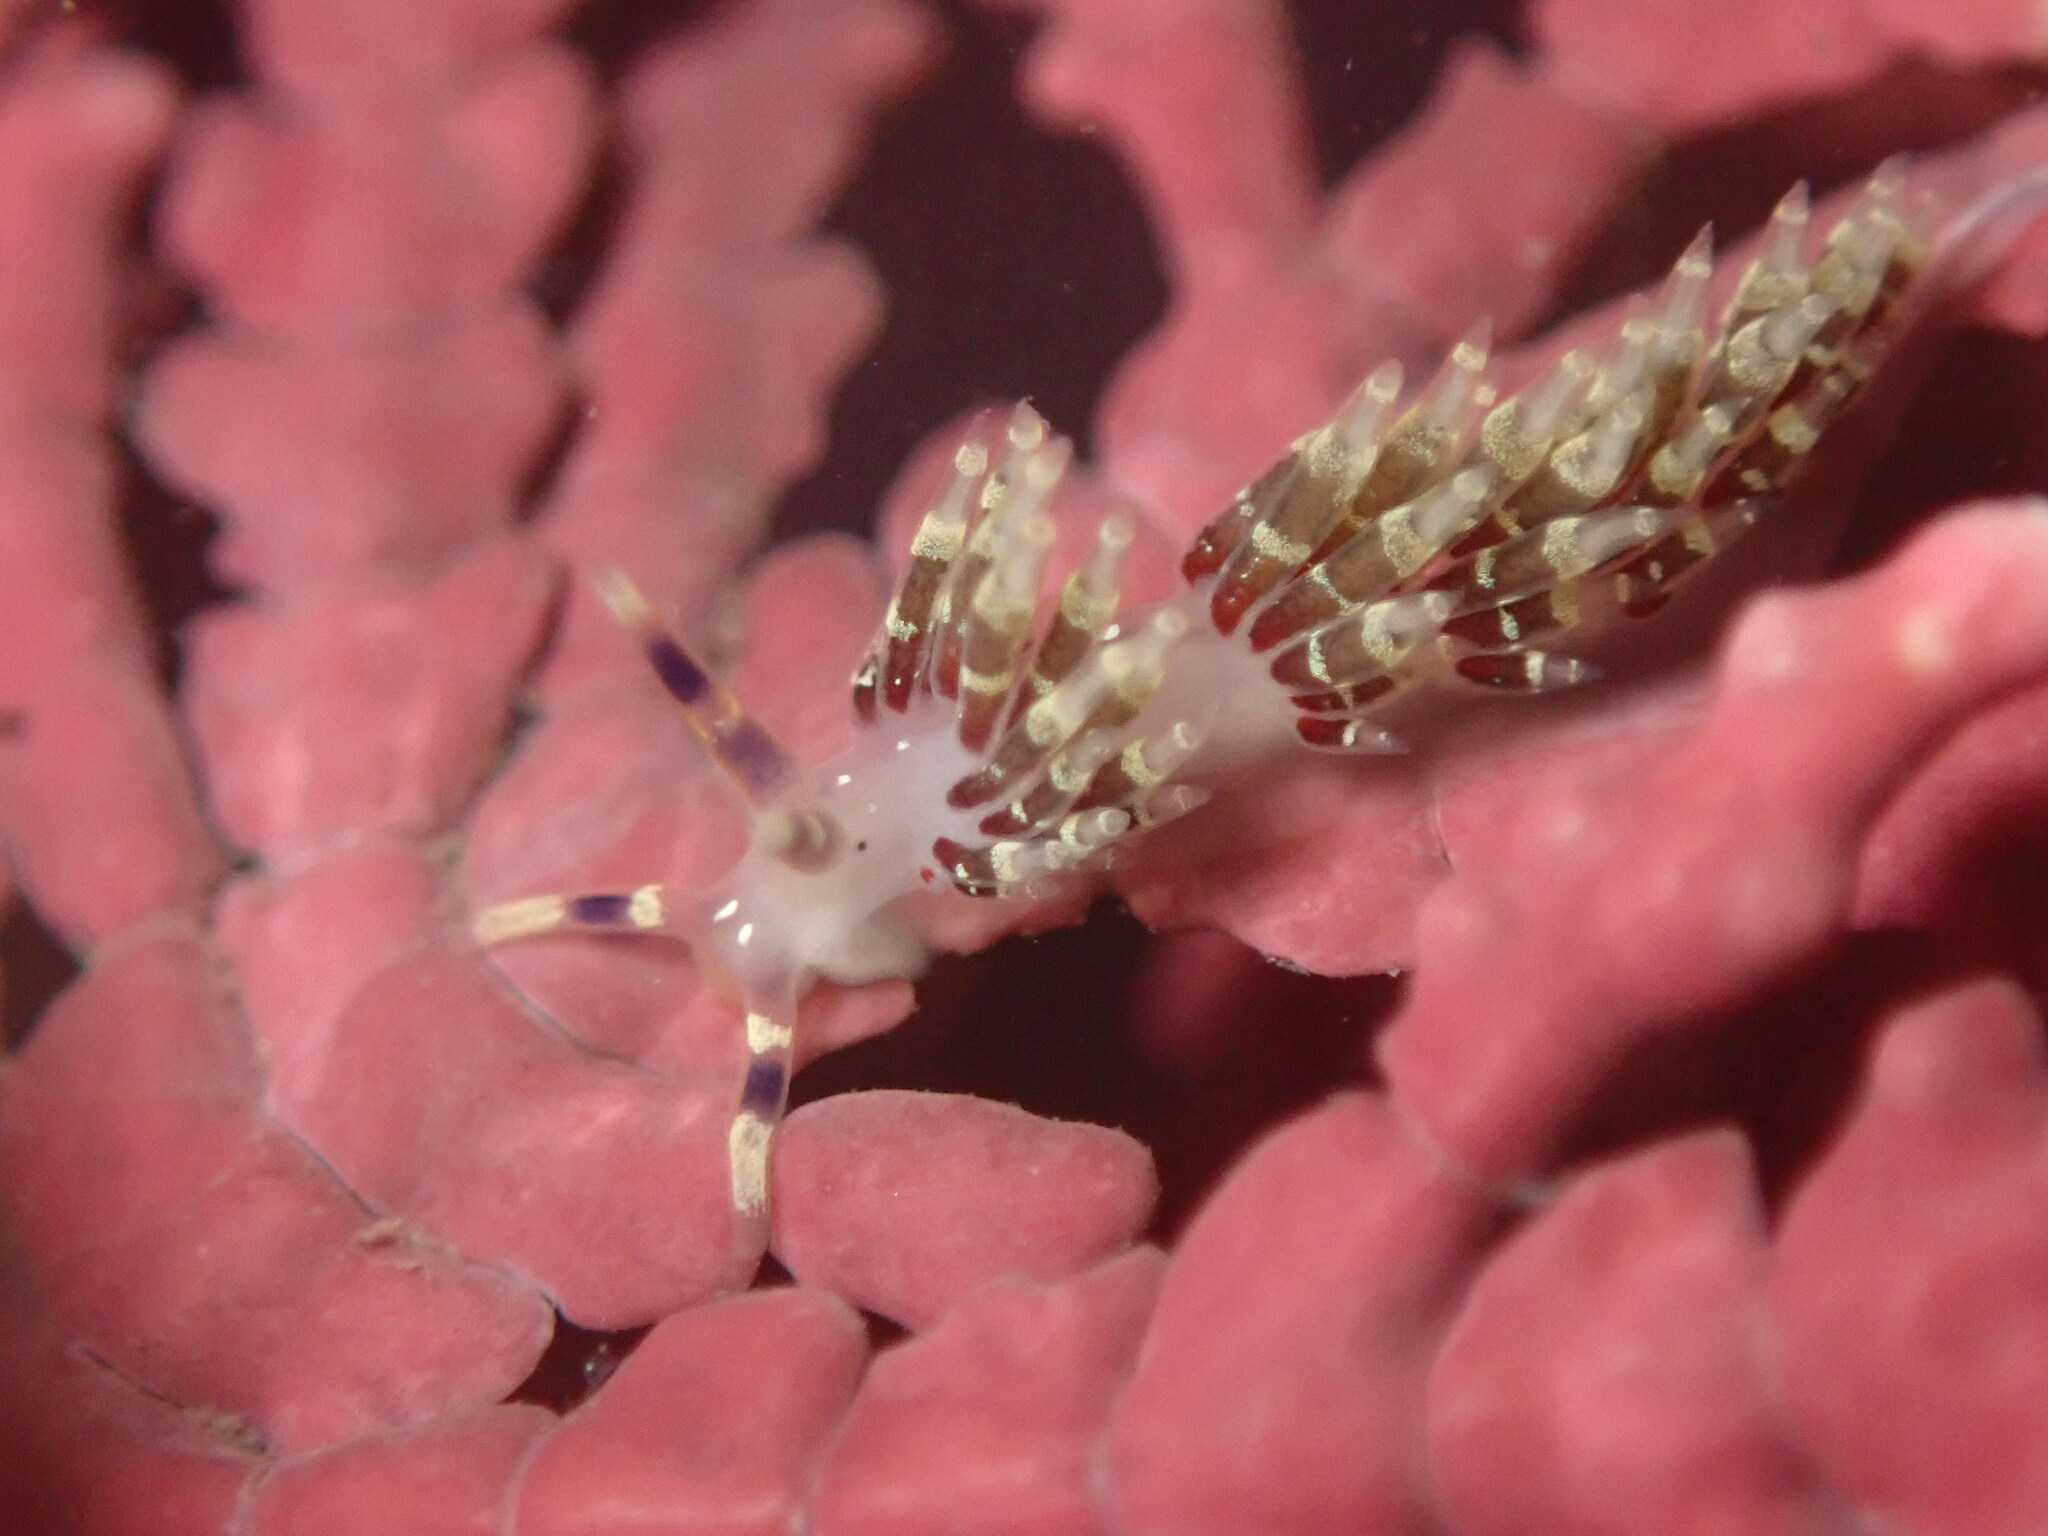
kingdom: Animalia
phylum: Mollusca
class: Gastropoda
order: Nudibranchia
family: Abronicidae
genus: Abronica
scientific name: Abronica abronia
